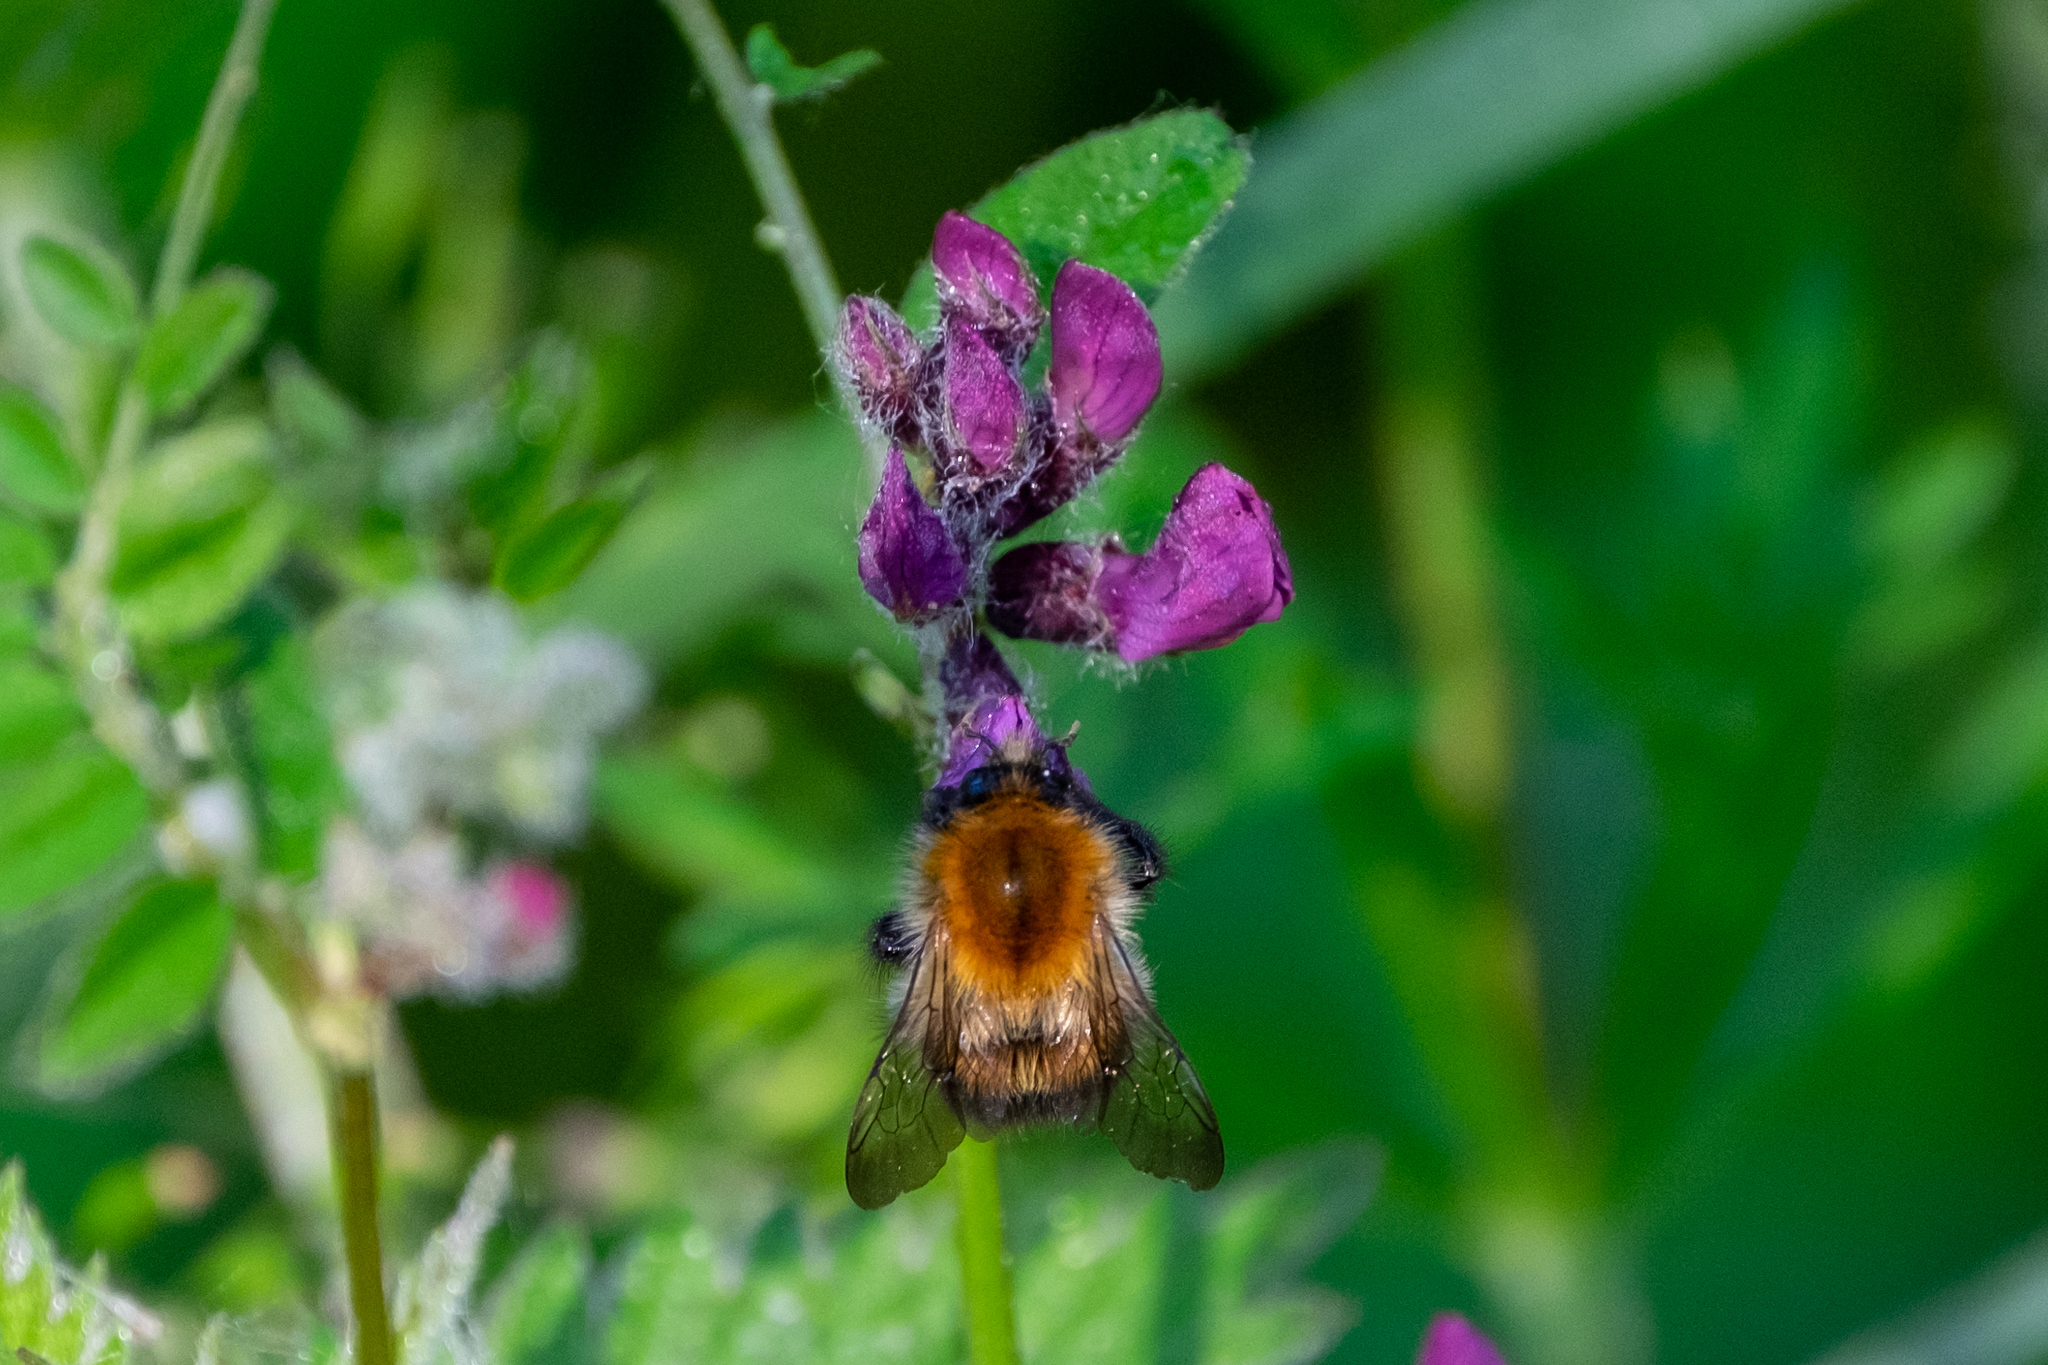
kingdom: Animalia
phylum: Arthropoda
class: Insecta
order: Hymenoptera
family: Apidae
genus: Bombus
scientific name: Bombus pascuorum
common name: Common carder bee
